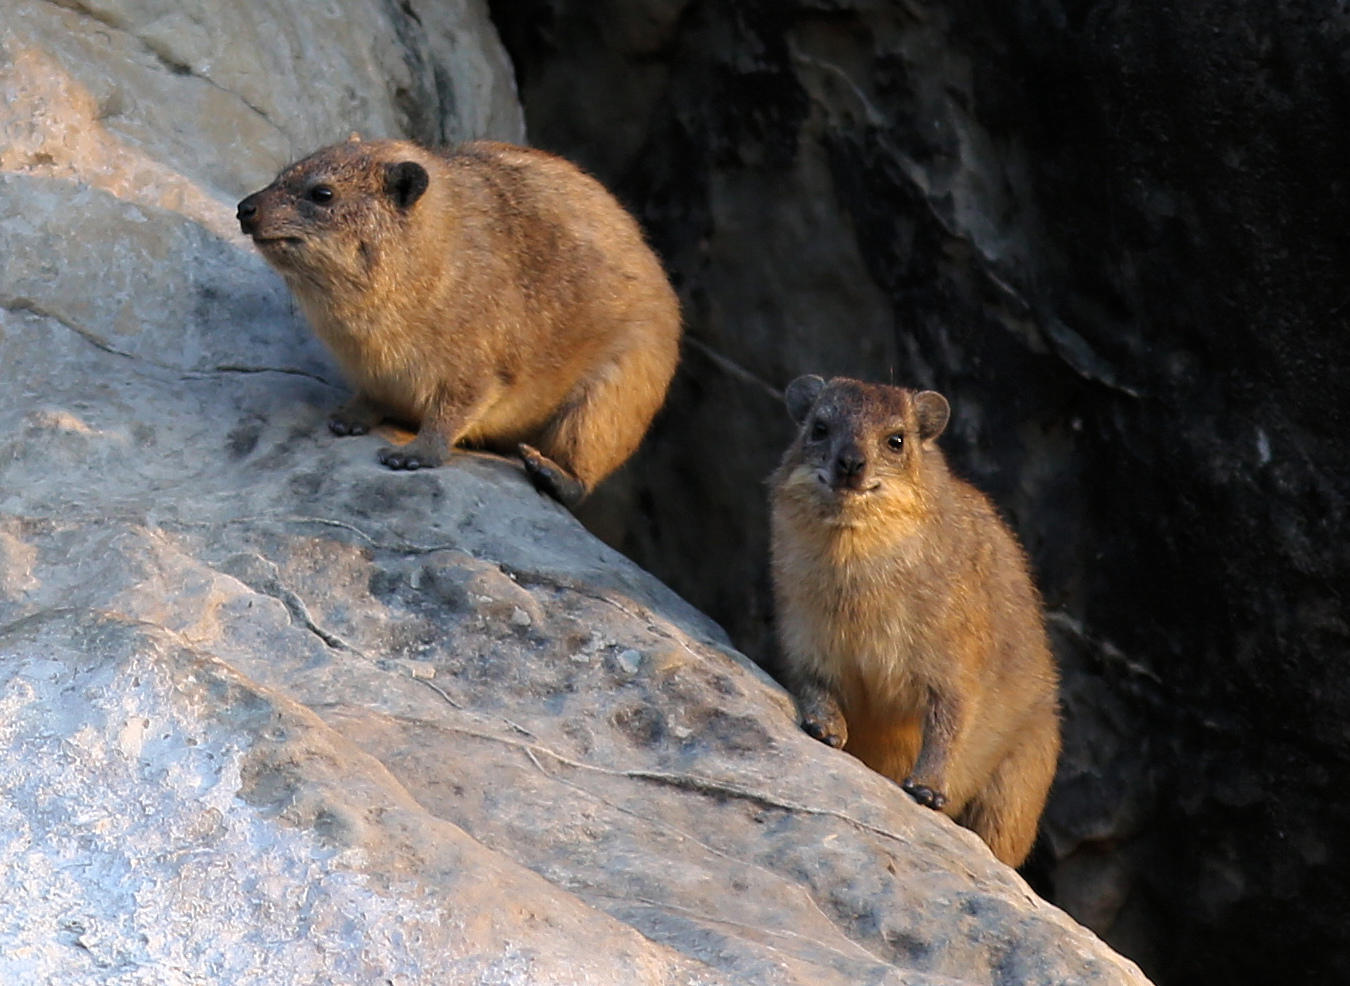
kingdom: Animalia
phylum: Chordata
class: Mammalia
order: Hyracoidea
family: Procaviidae
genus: Procavia
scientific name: Procavia capensis
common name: Rock hyrax
